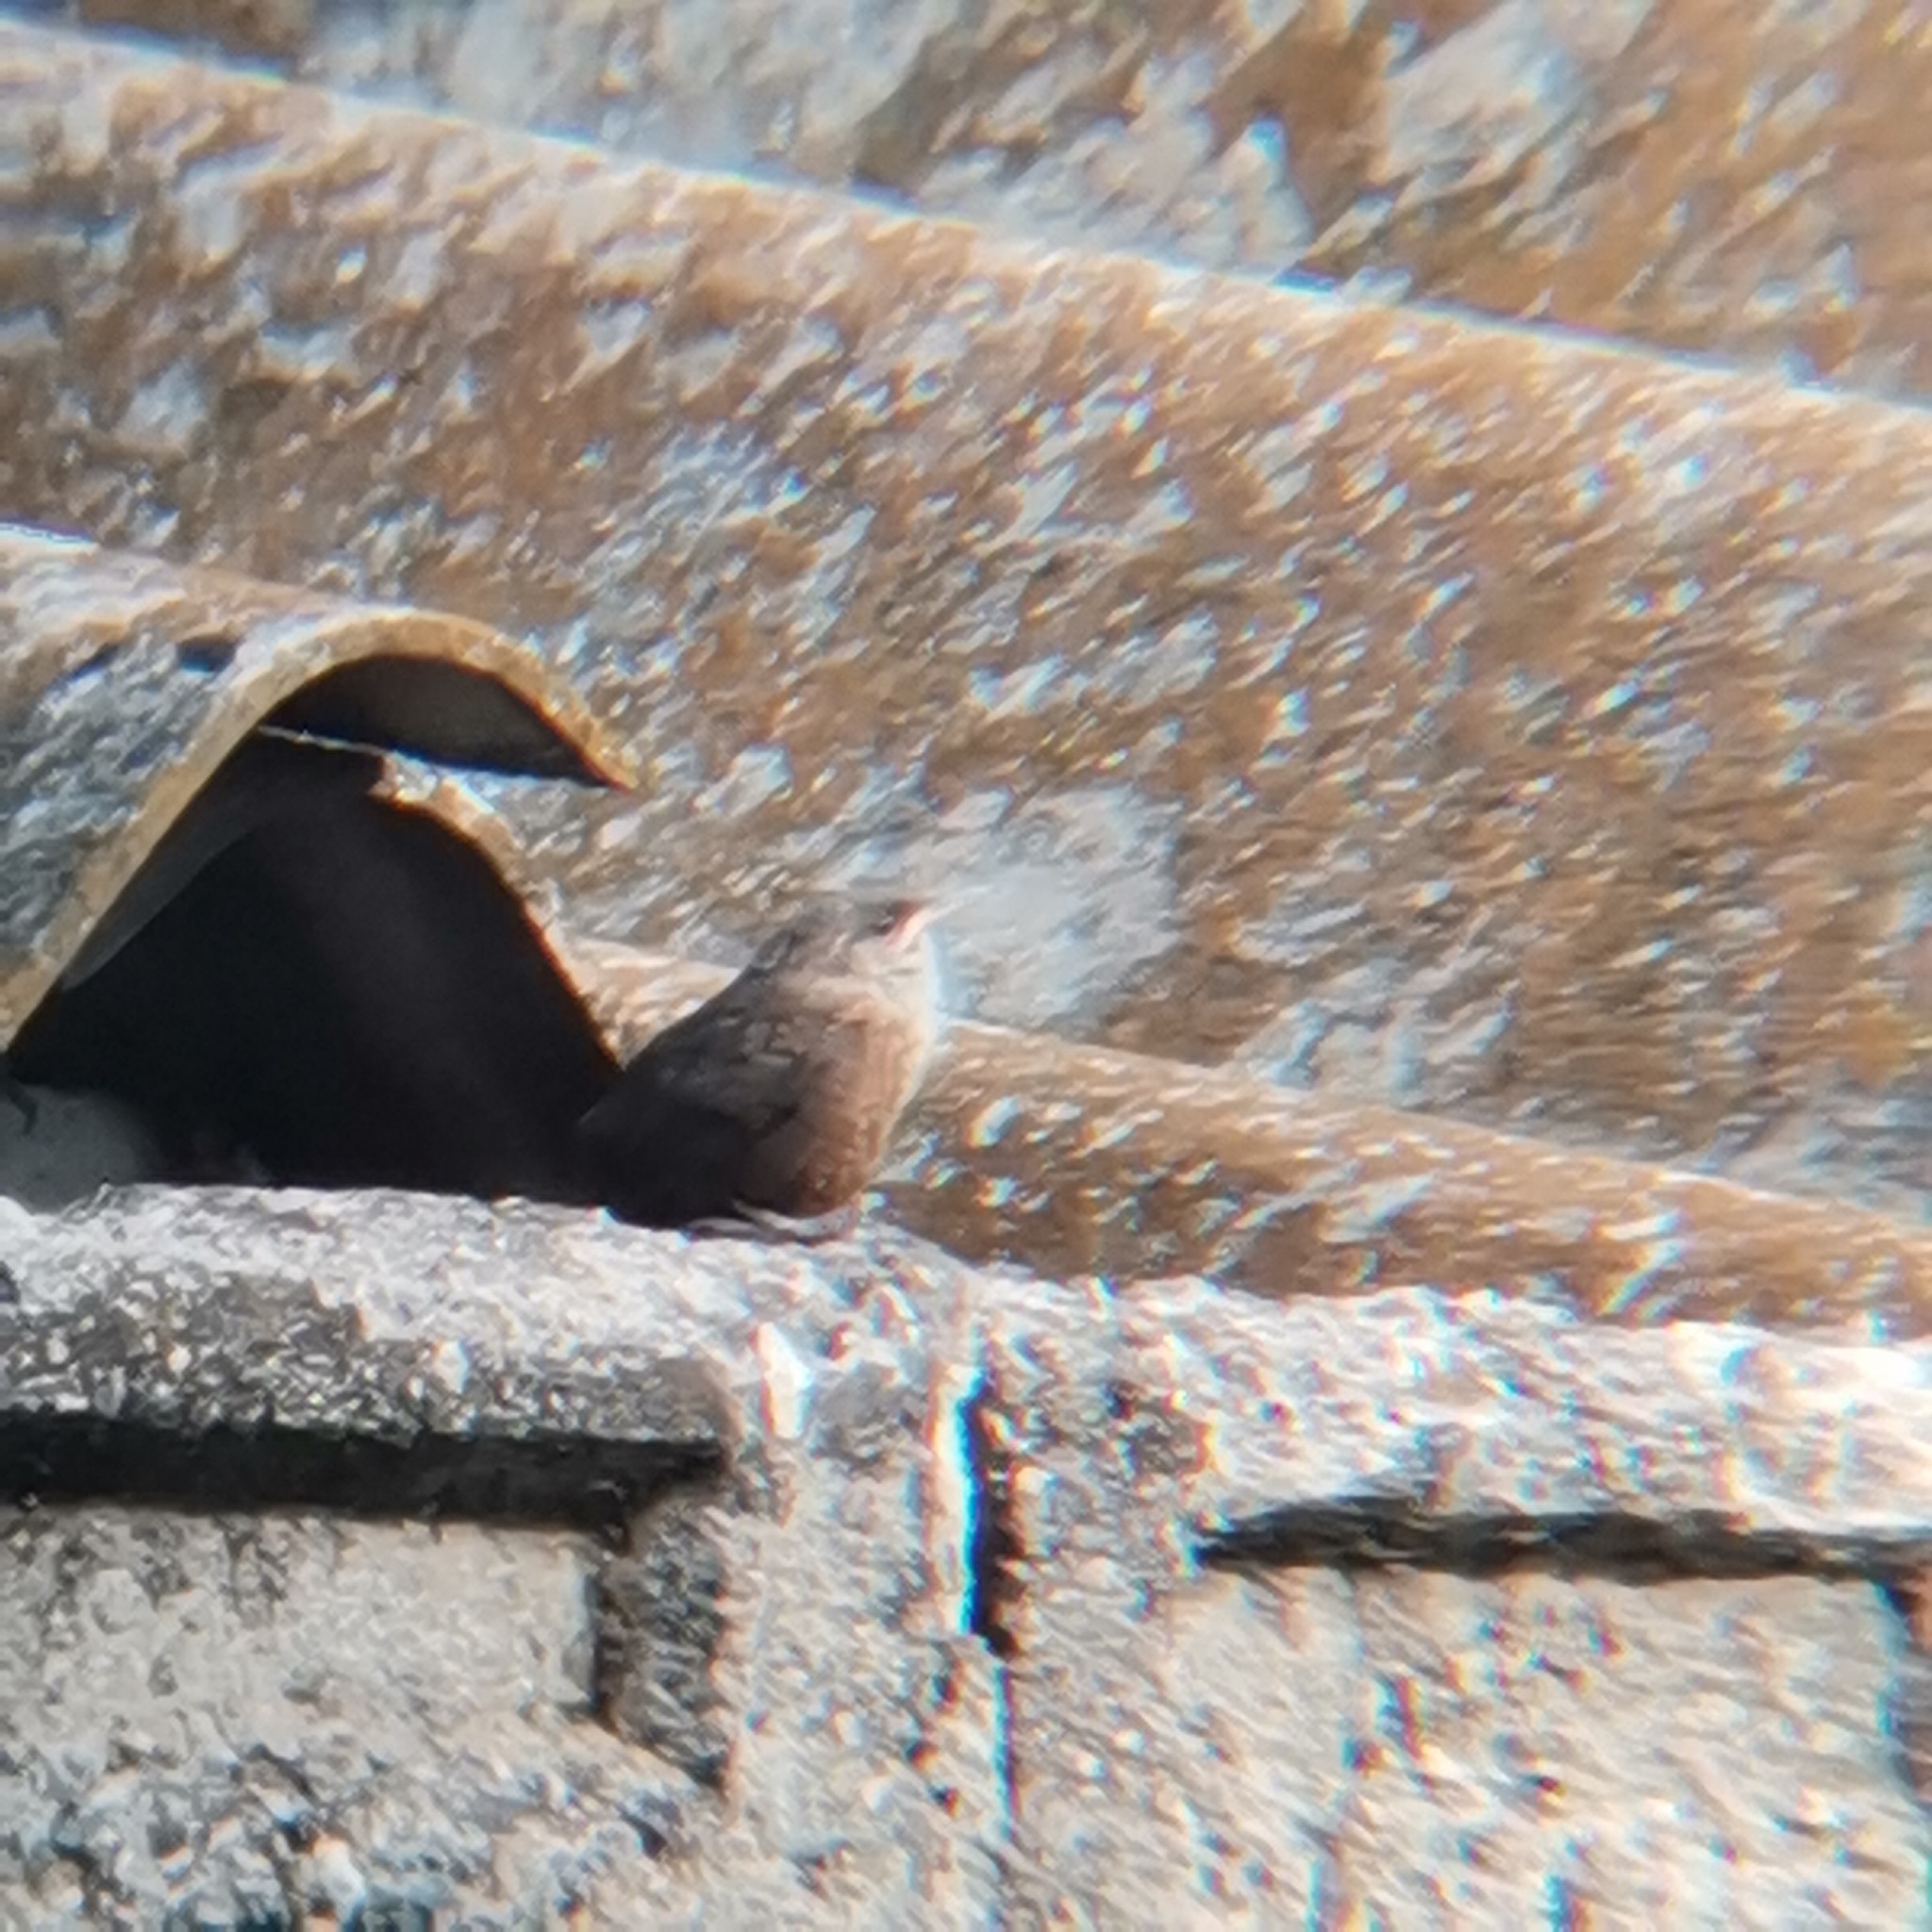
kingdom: Animalia
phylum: Chordata
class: Aves
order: Passeriformes
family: Troglodytidae
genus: Catherpes
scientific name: Catherpes mexicanus
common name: Canyon wren
